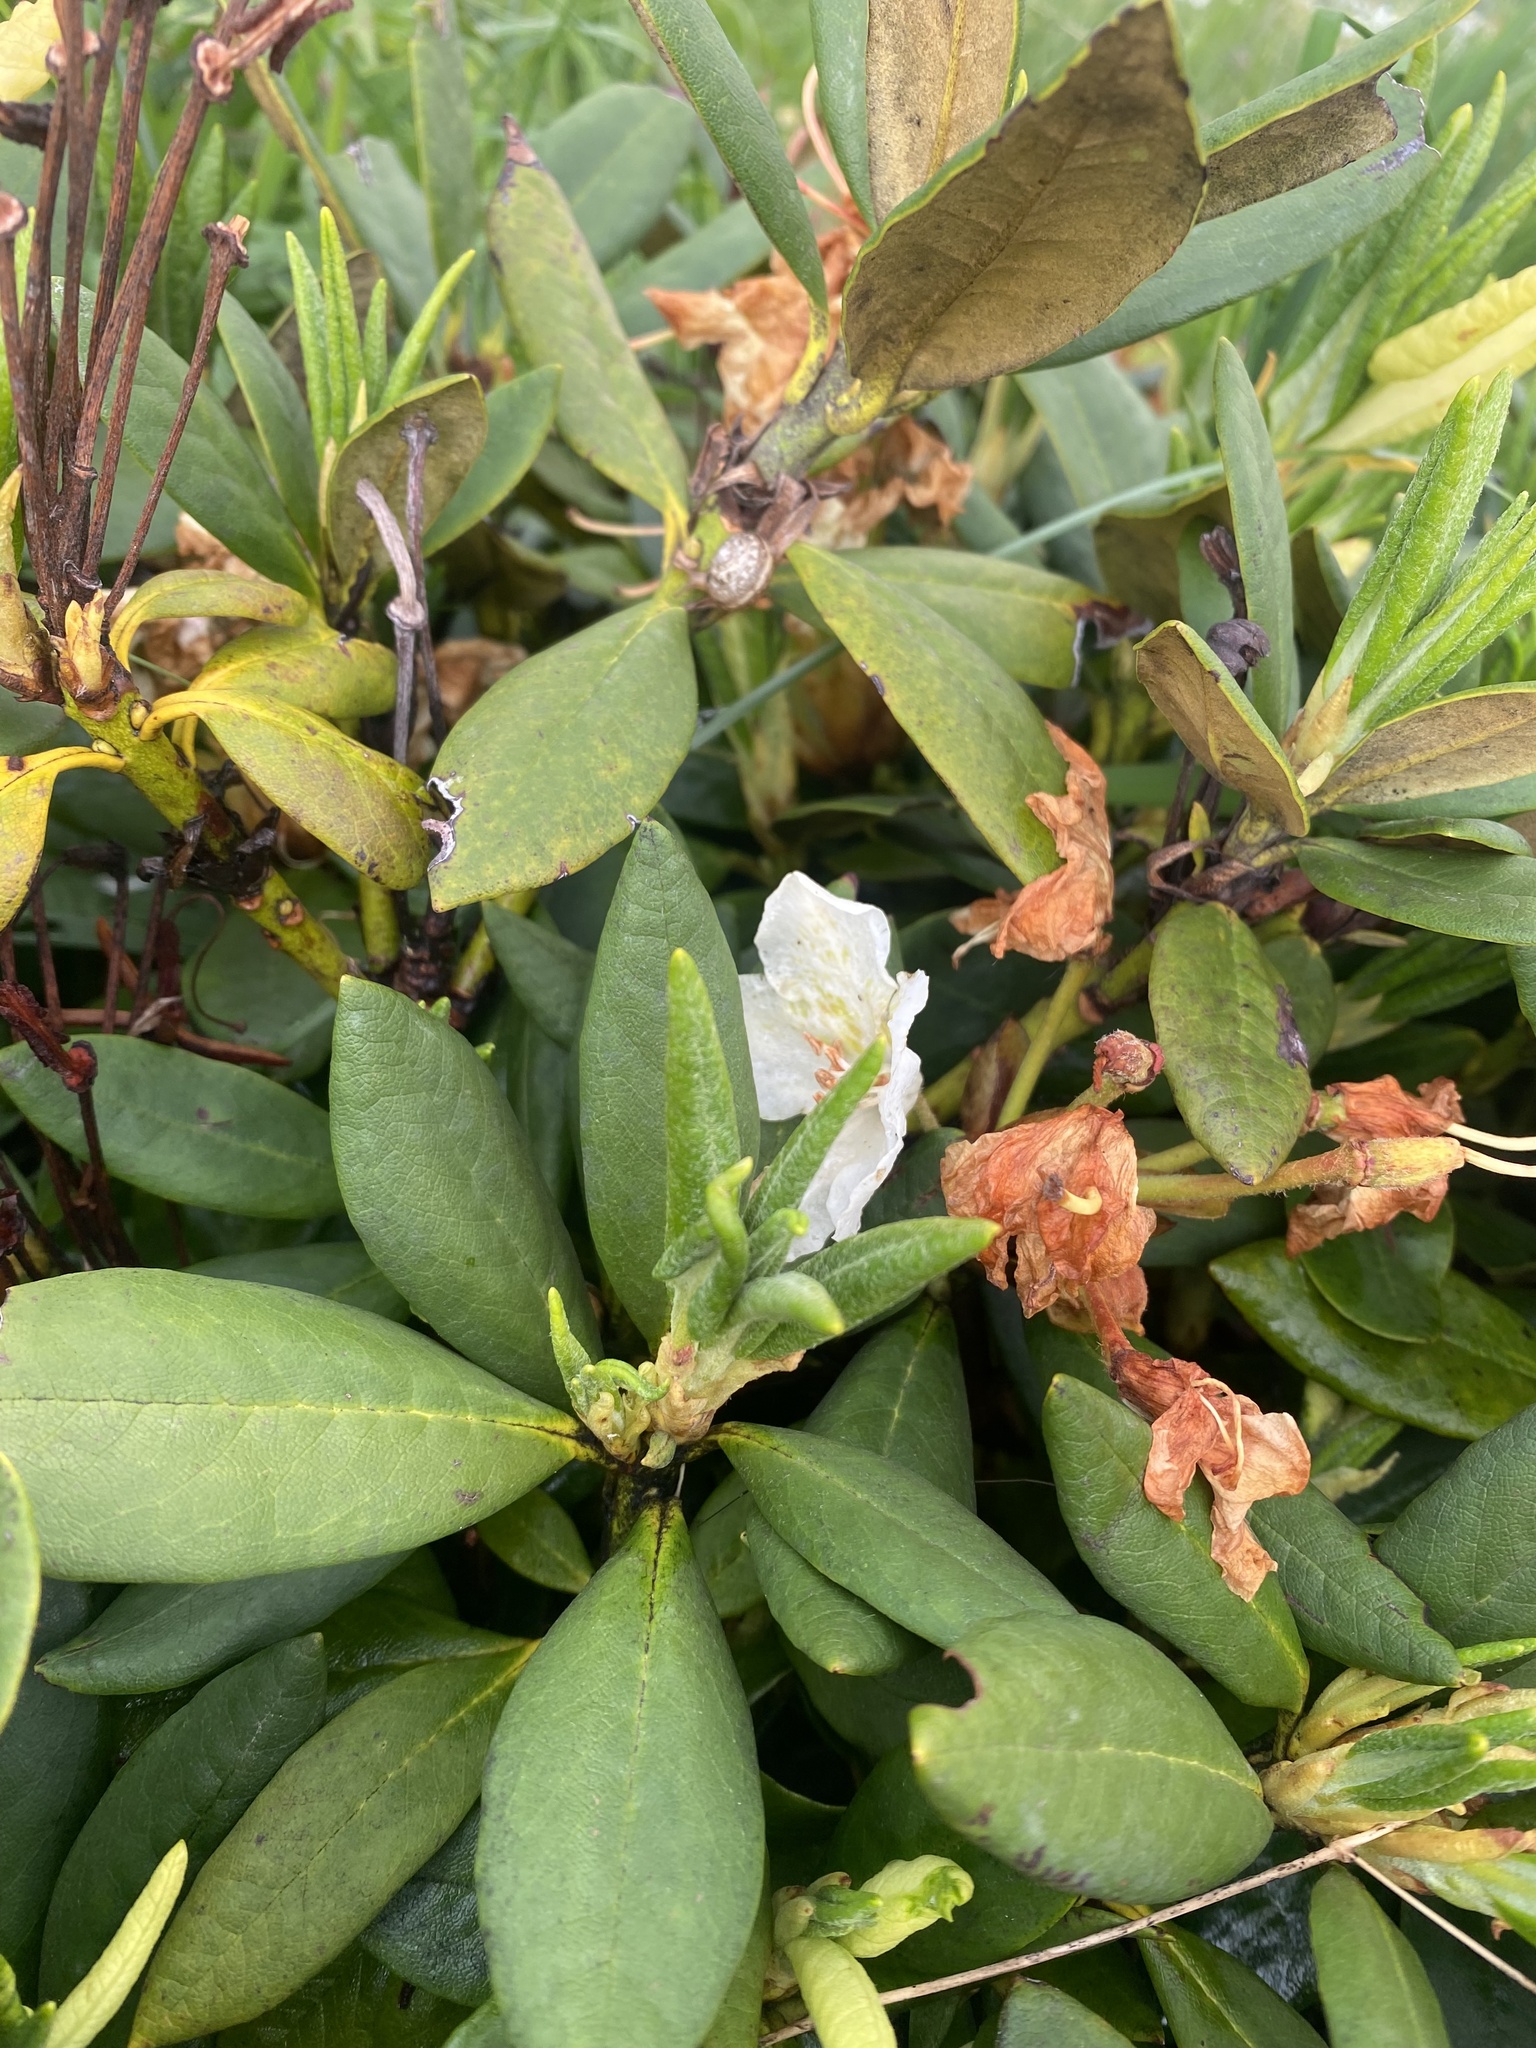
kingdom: Plantae
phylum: Tracheophyta
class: Magnoliopsida
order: Ericales
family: Ericaceae
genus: Rhododendron
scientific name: Rhododendron caucasicum
